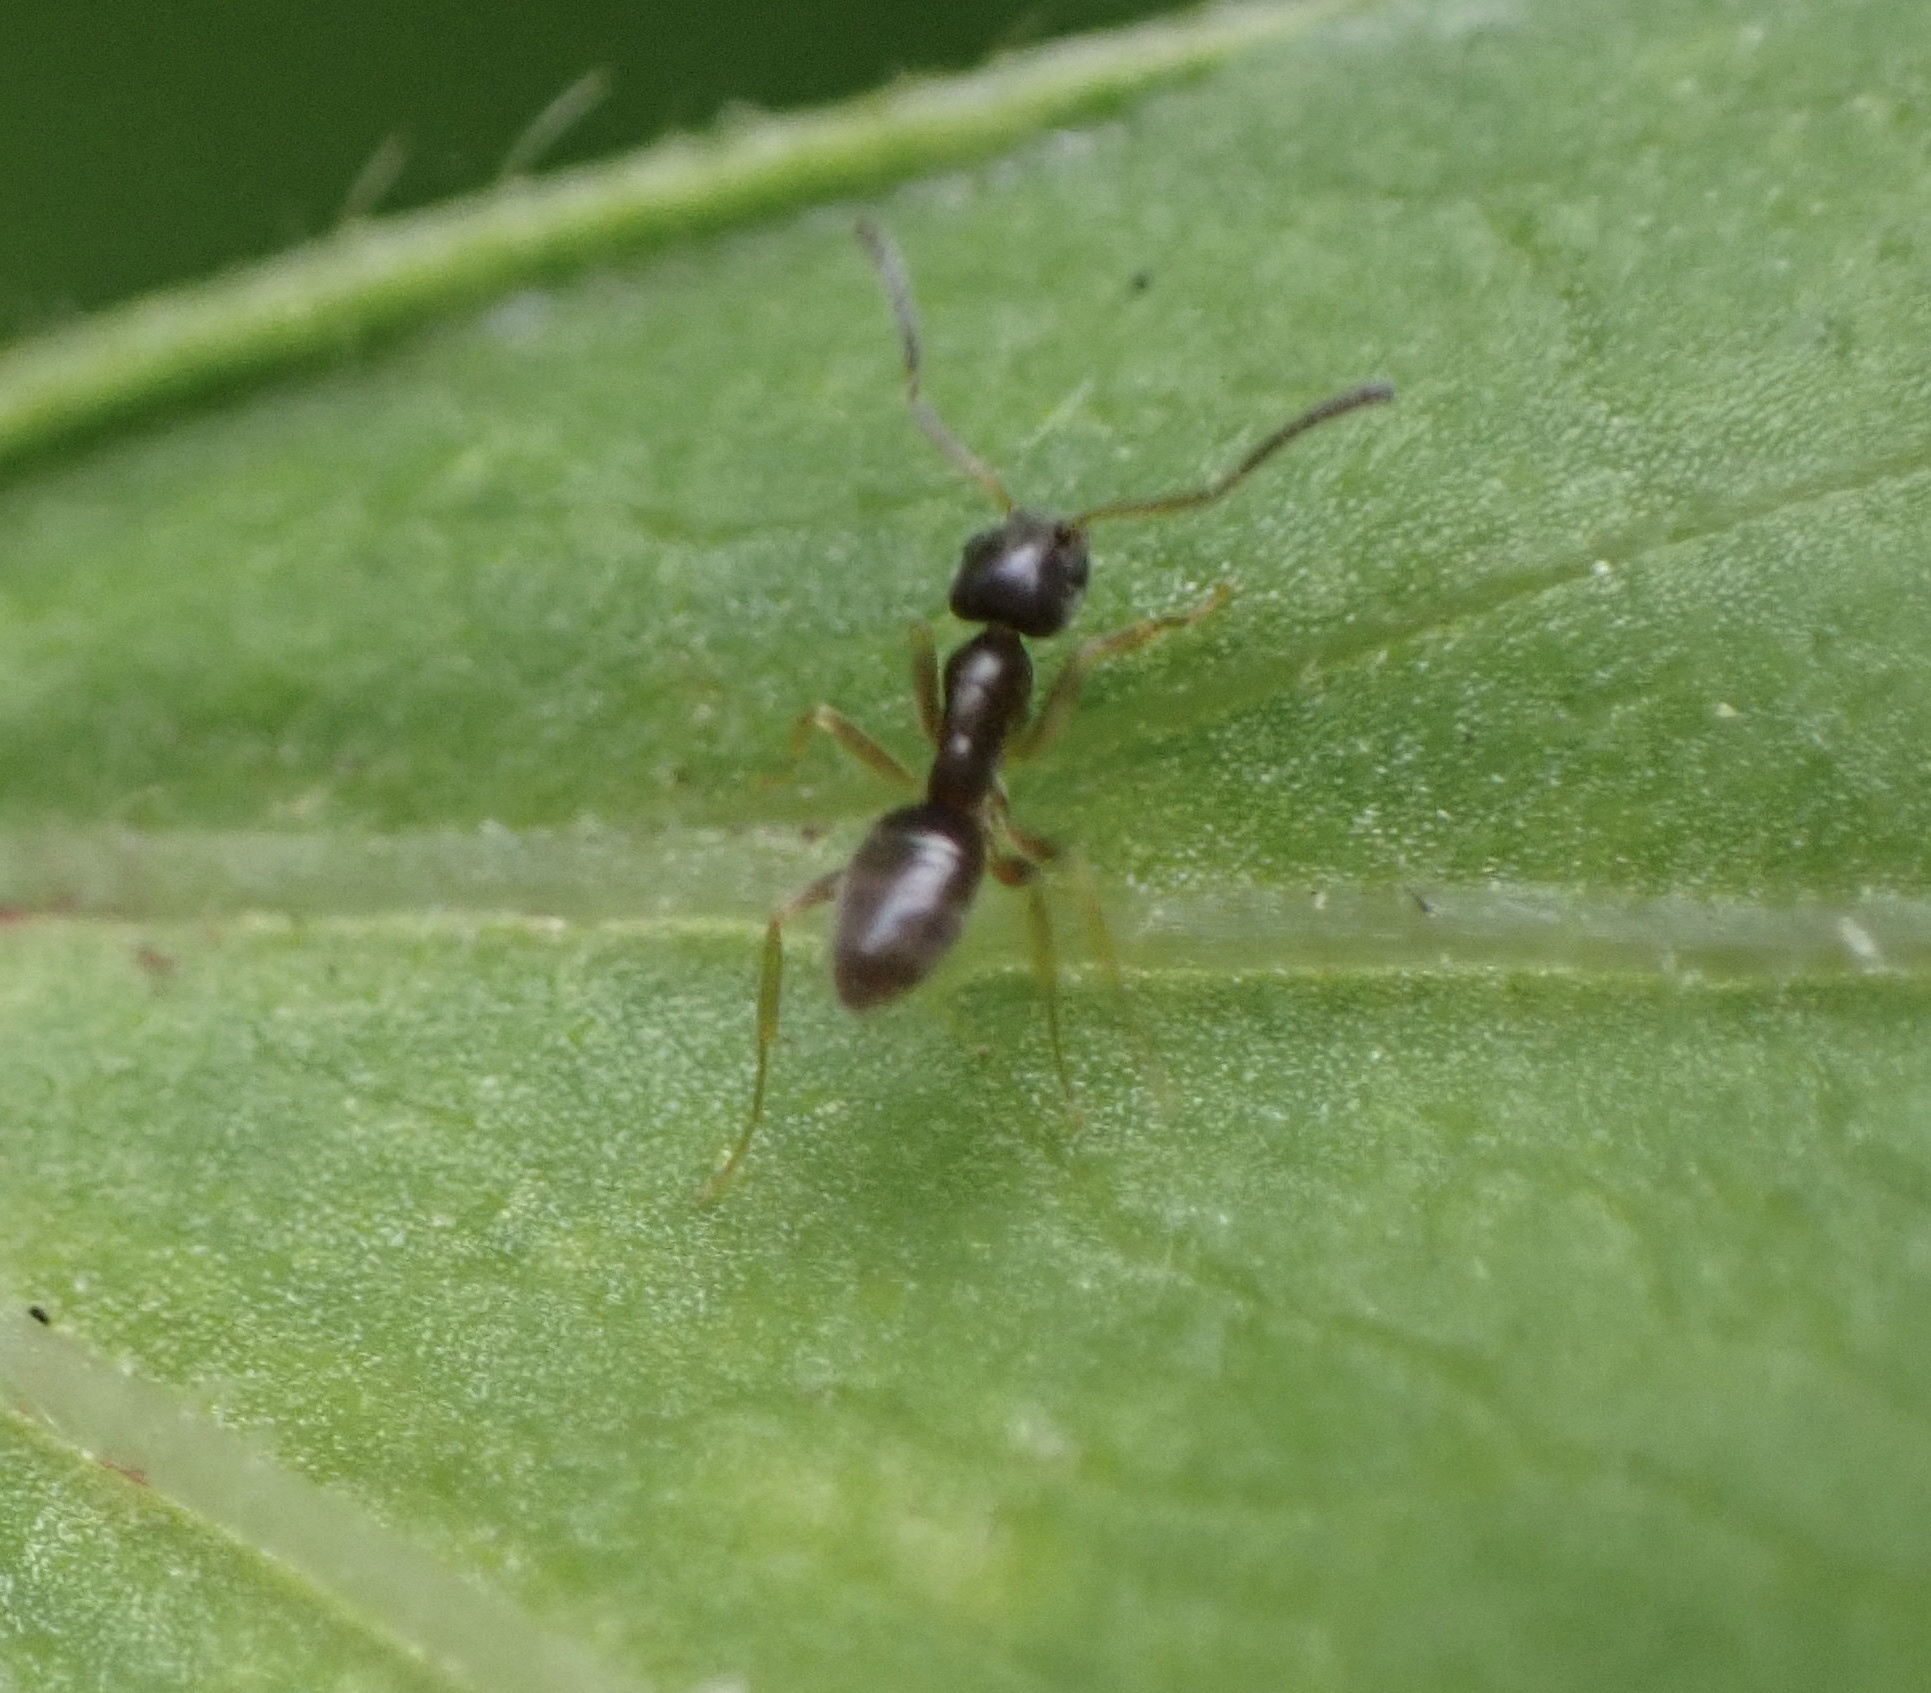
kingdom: Animalia
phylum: Arthropoda
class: Insecta
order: Hymenoptera
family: Formicidae
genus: Tapinoma
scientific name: Tapinoma sessile
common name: Odorous house ant
